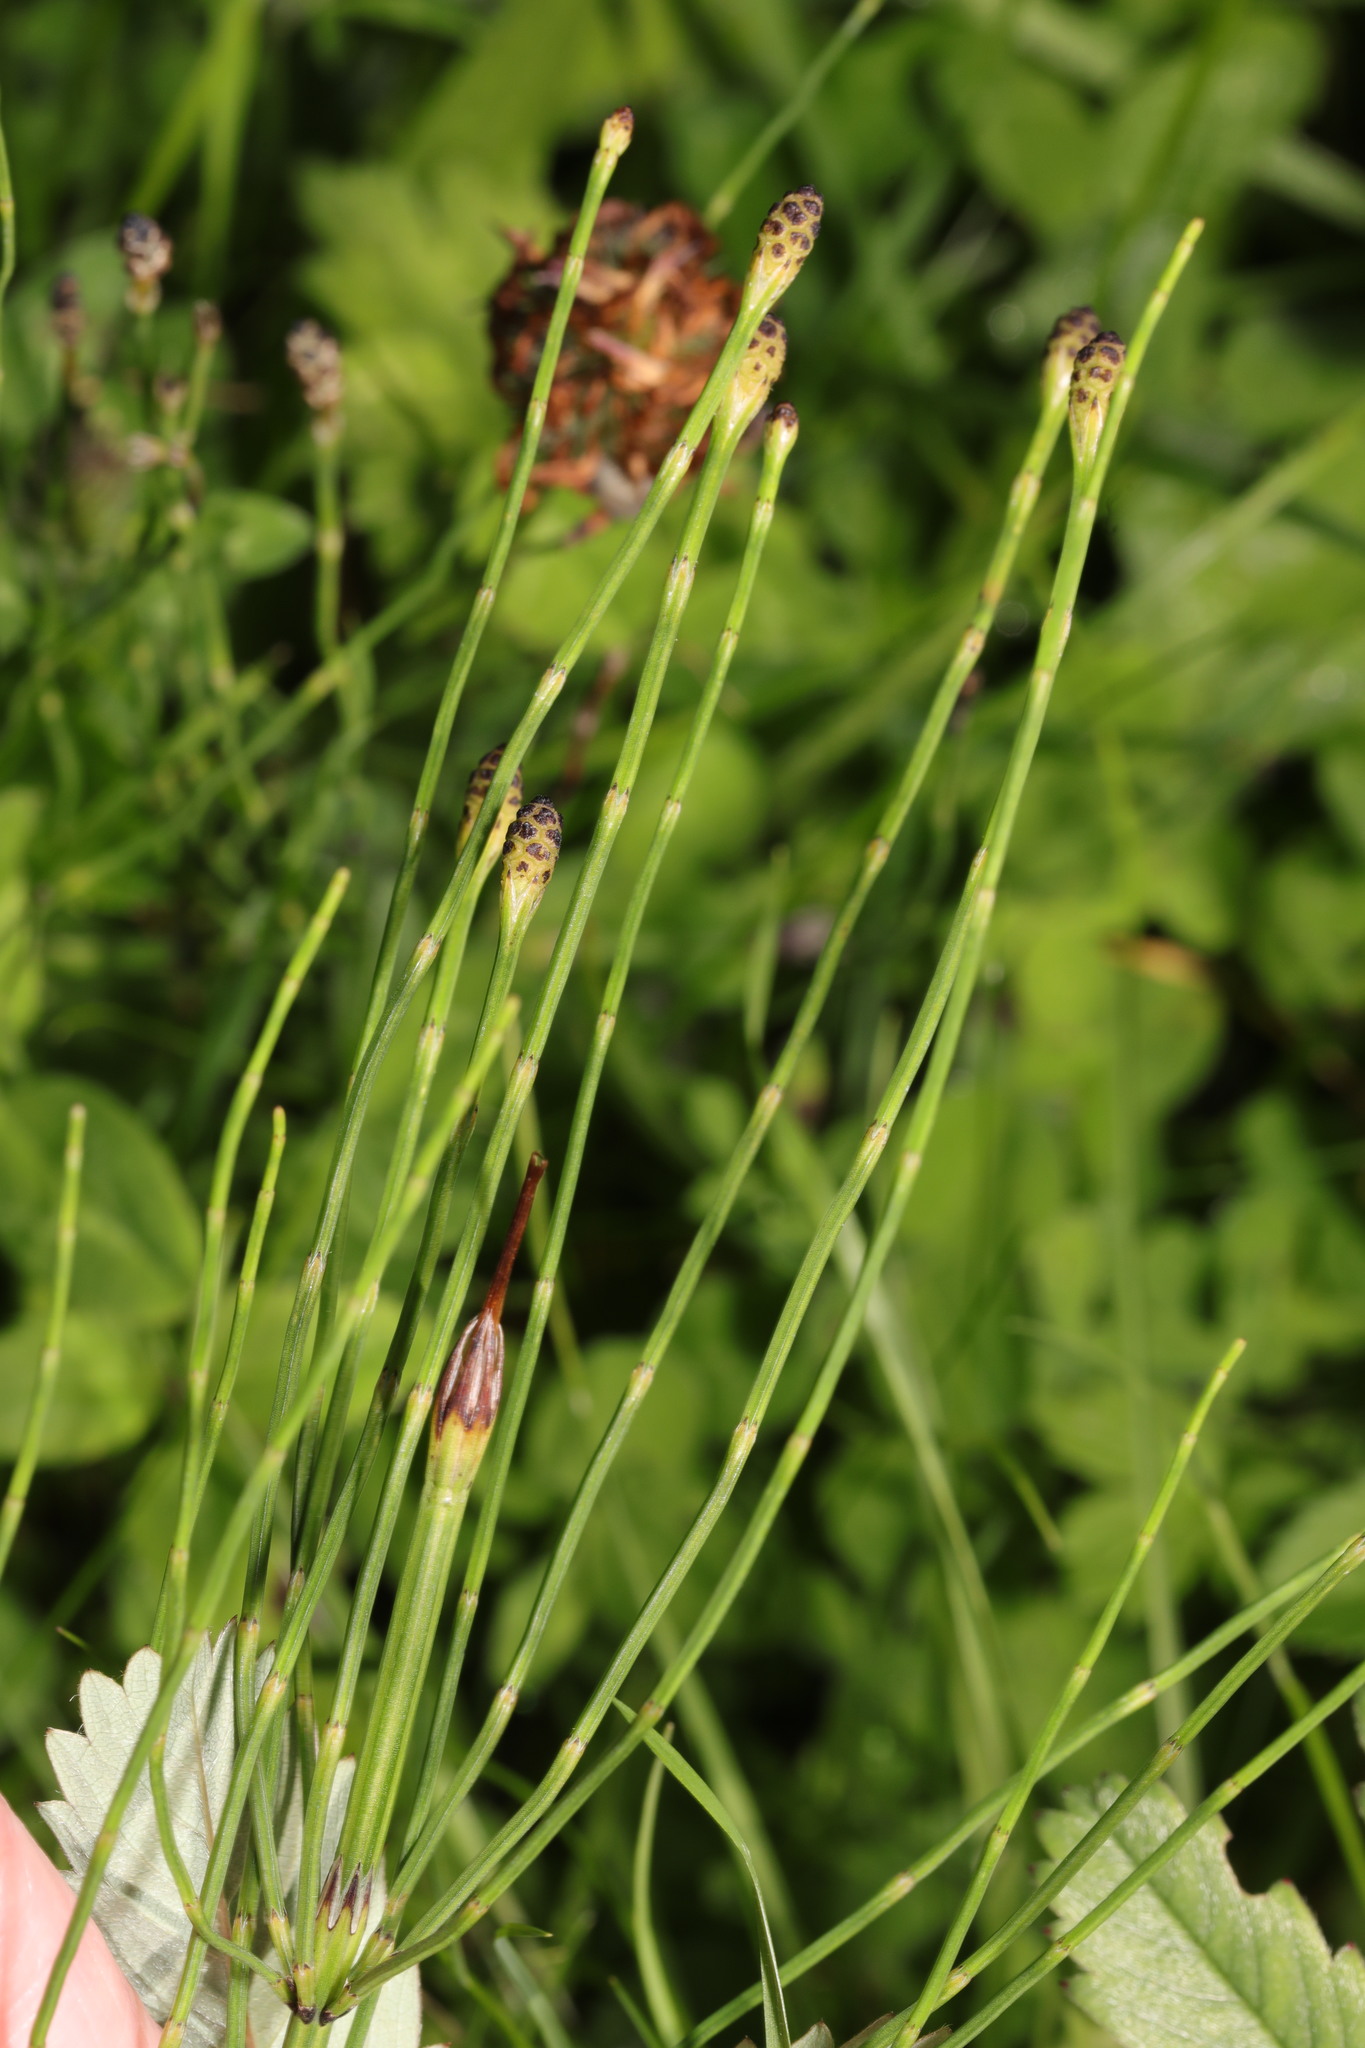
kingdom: Plantae
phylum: Tracheophyta
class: Polypodiopsida
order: Equisetales
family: Equisetaceae
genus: Equisetum
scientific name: Equisetum palustre
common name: Marsh horsetail
